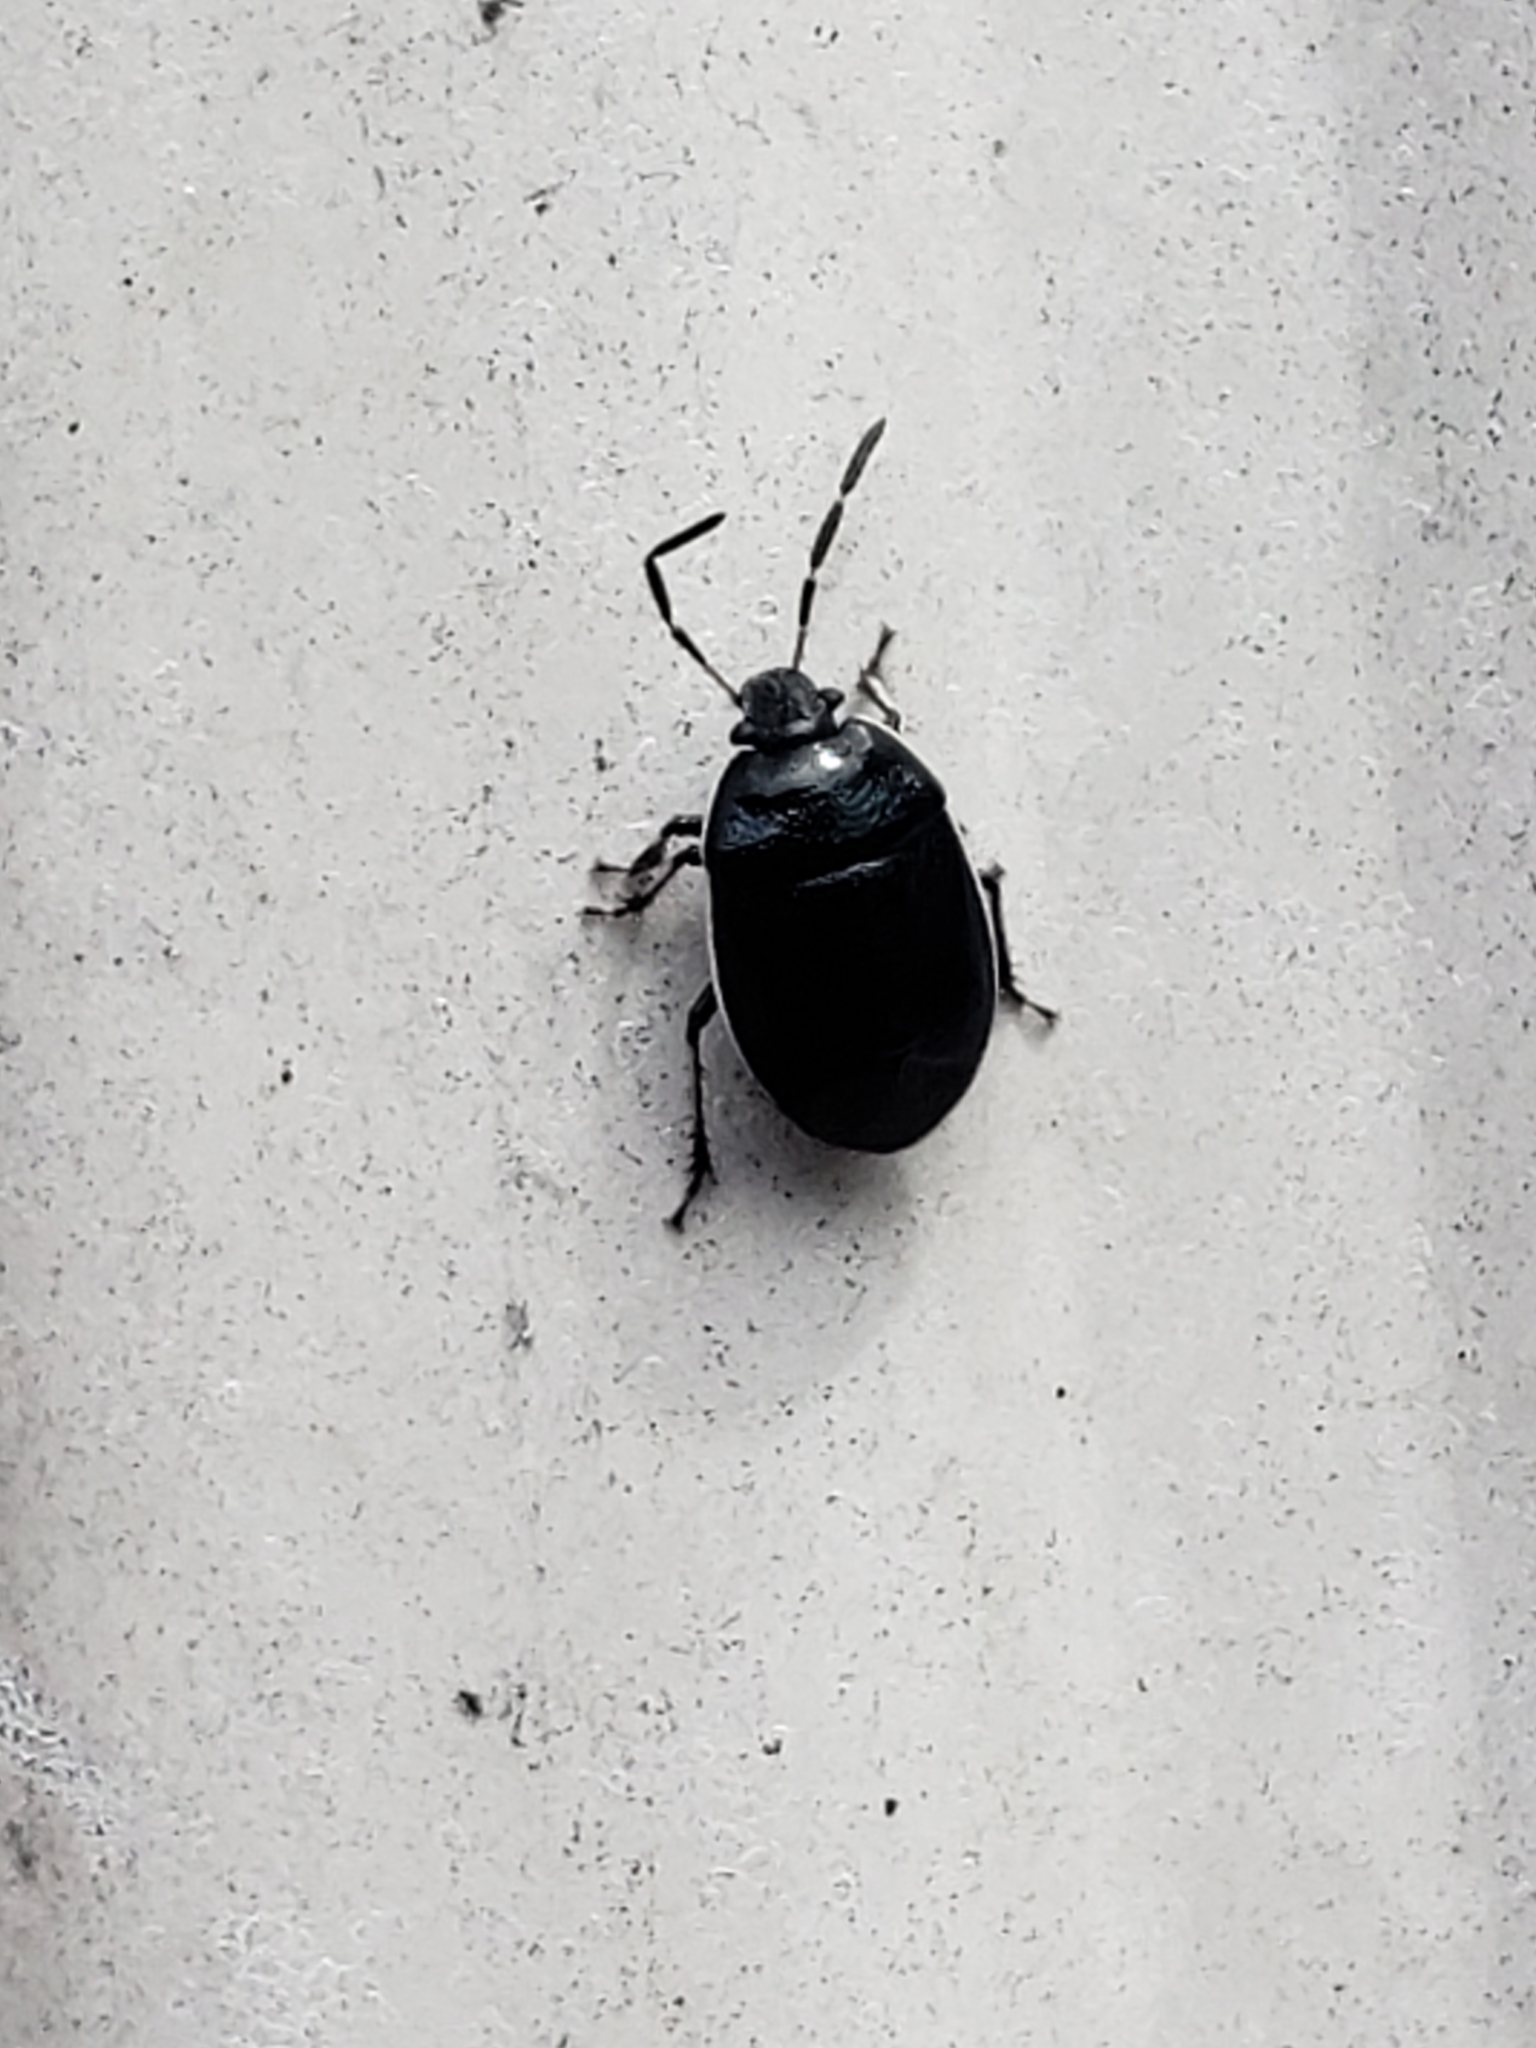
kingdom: Animalia
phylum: Arthropoda
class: Insecta
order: Hemiptera
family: Cydnidae
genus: Sehirus
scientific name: Sehirus cinctus
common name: White-margined burrower bug
